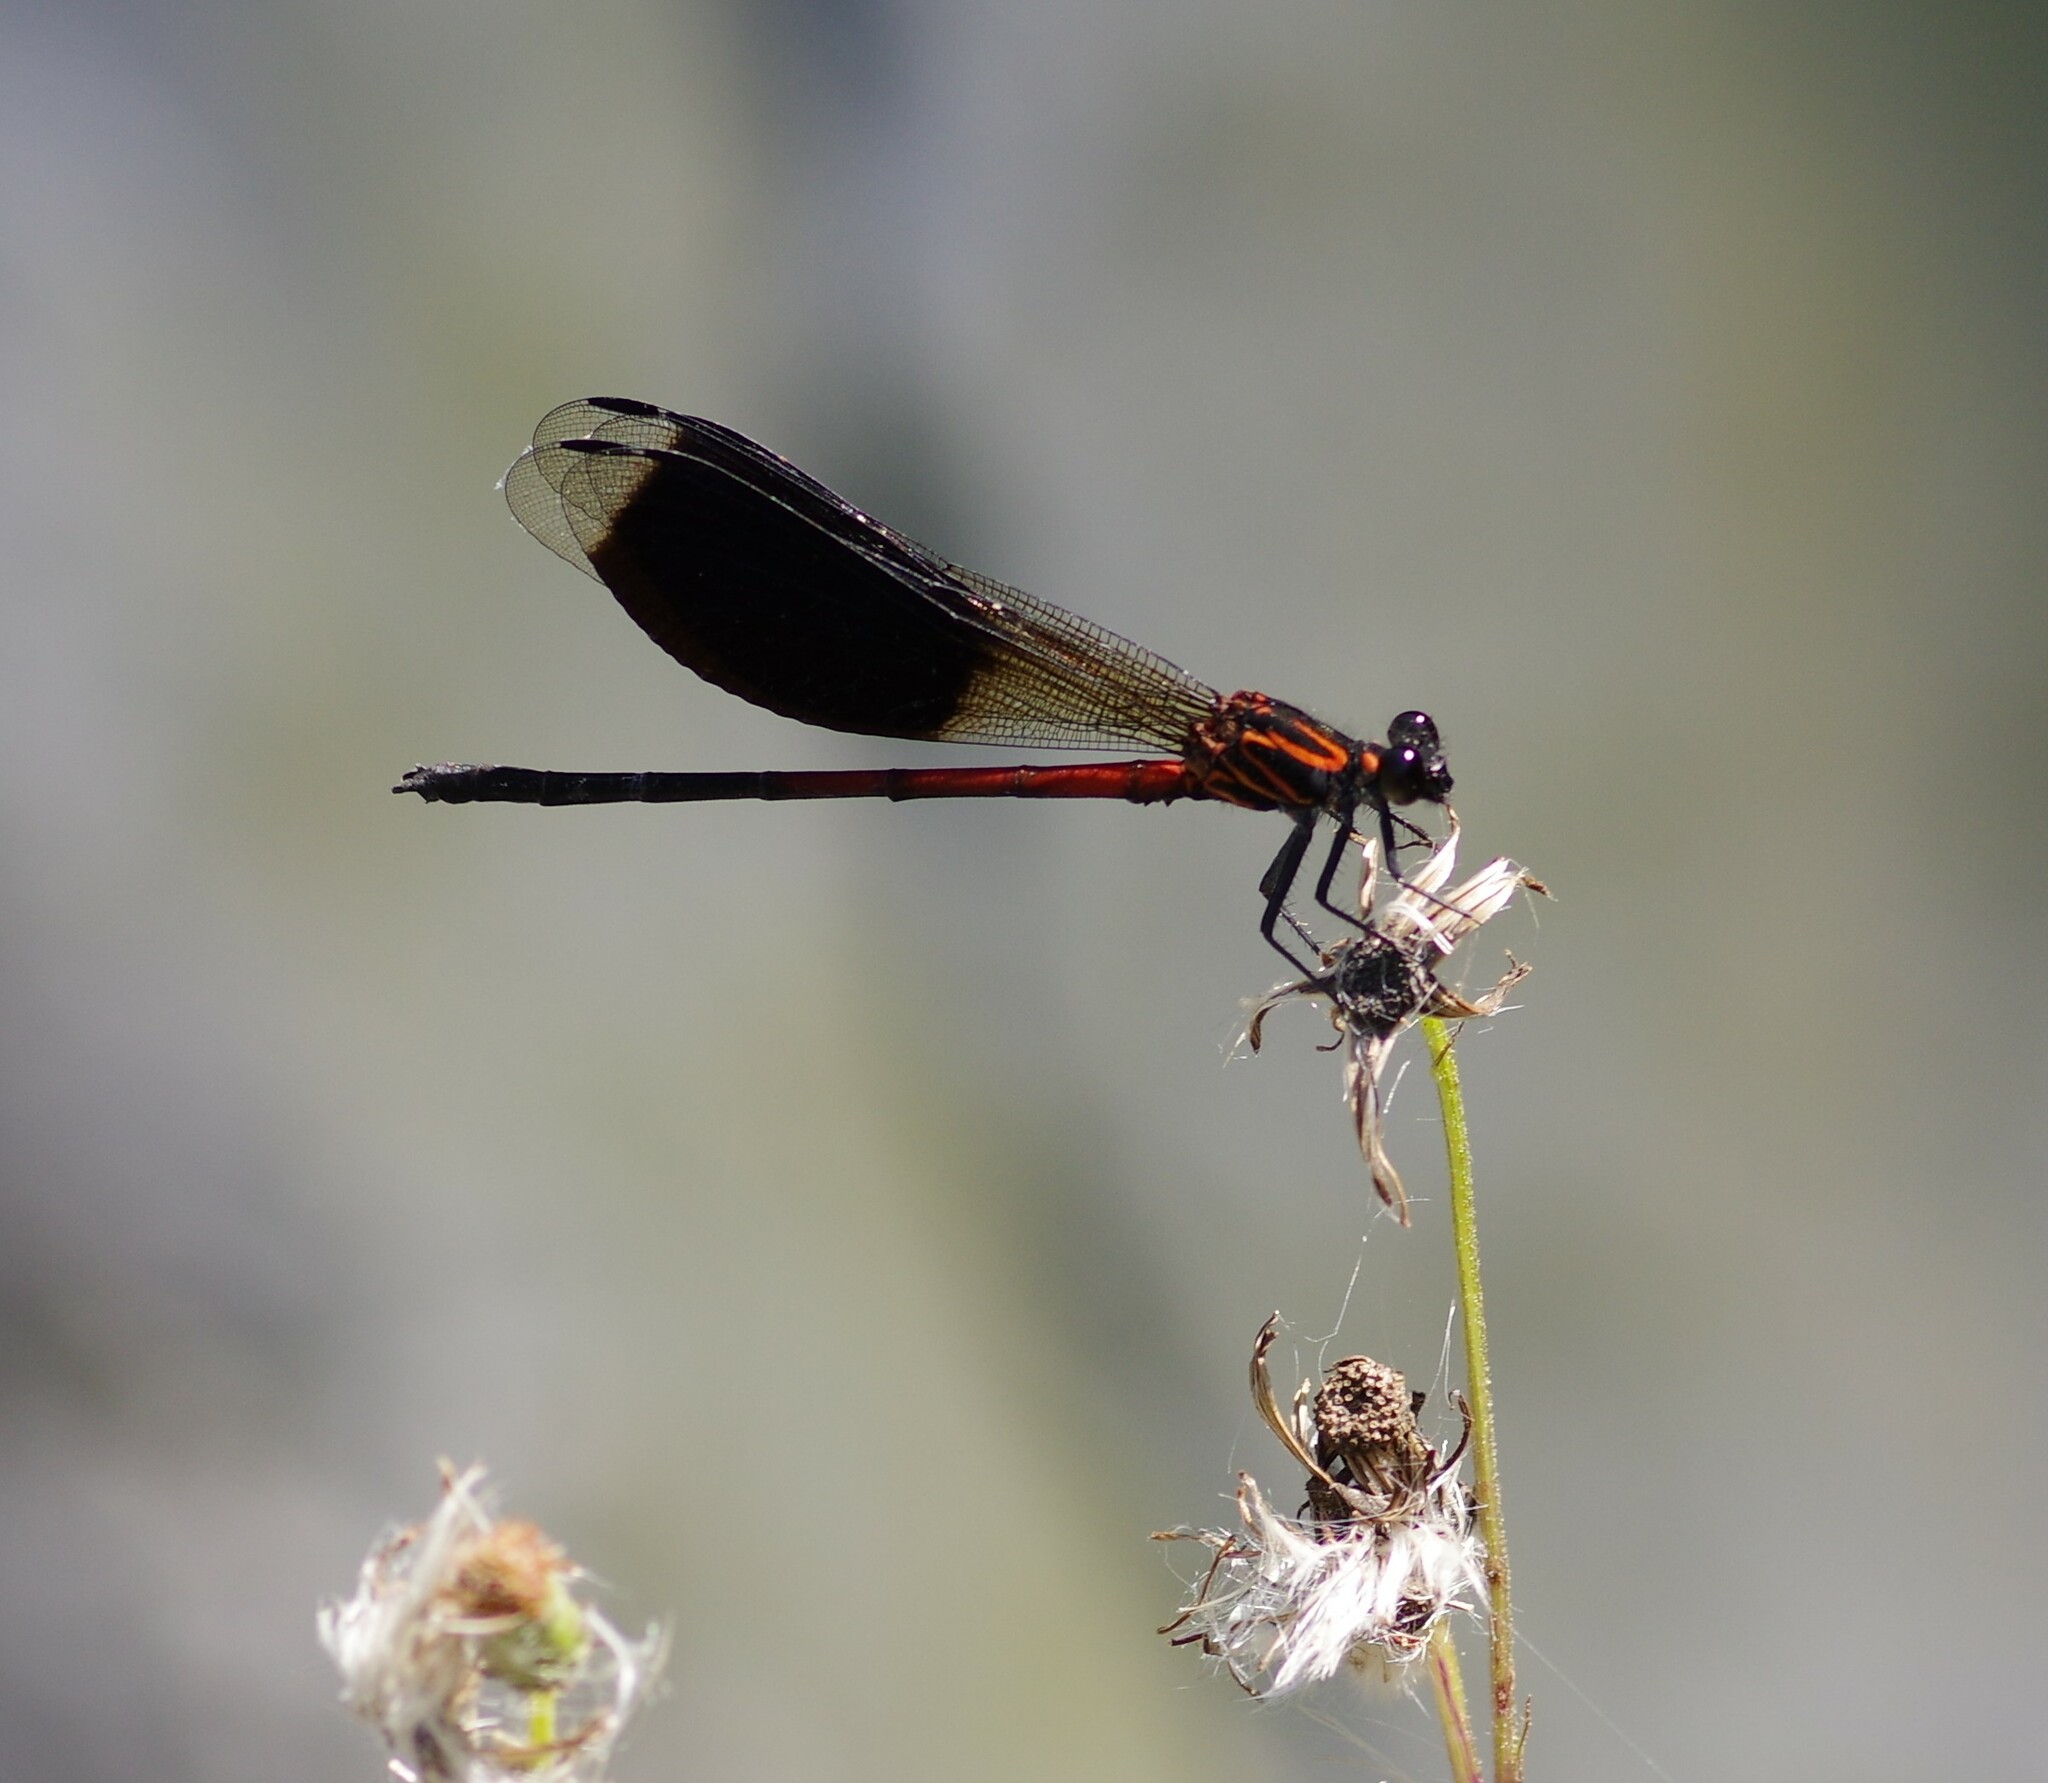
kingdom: Animalia
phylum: Arthropoda
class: Insecta
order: Odonata
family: Euphaeidae
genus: Euphaea
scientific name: Euphaea formosa
